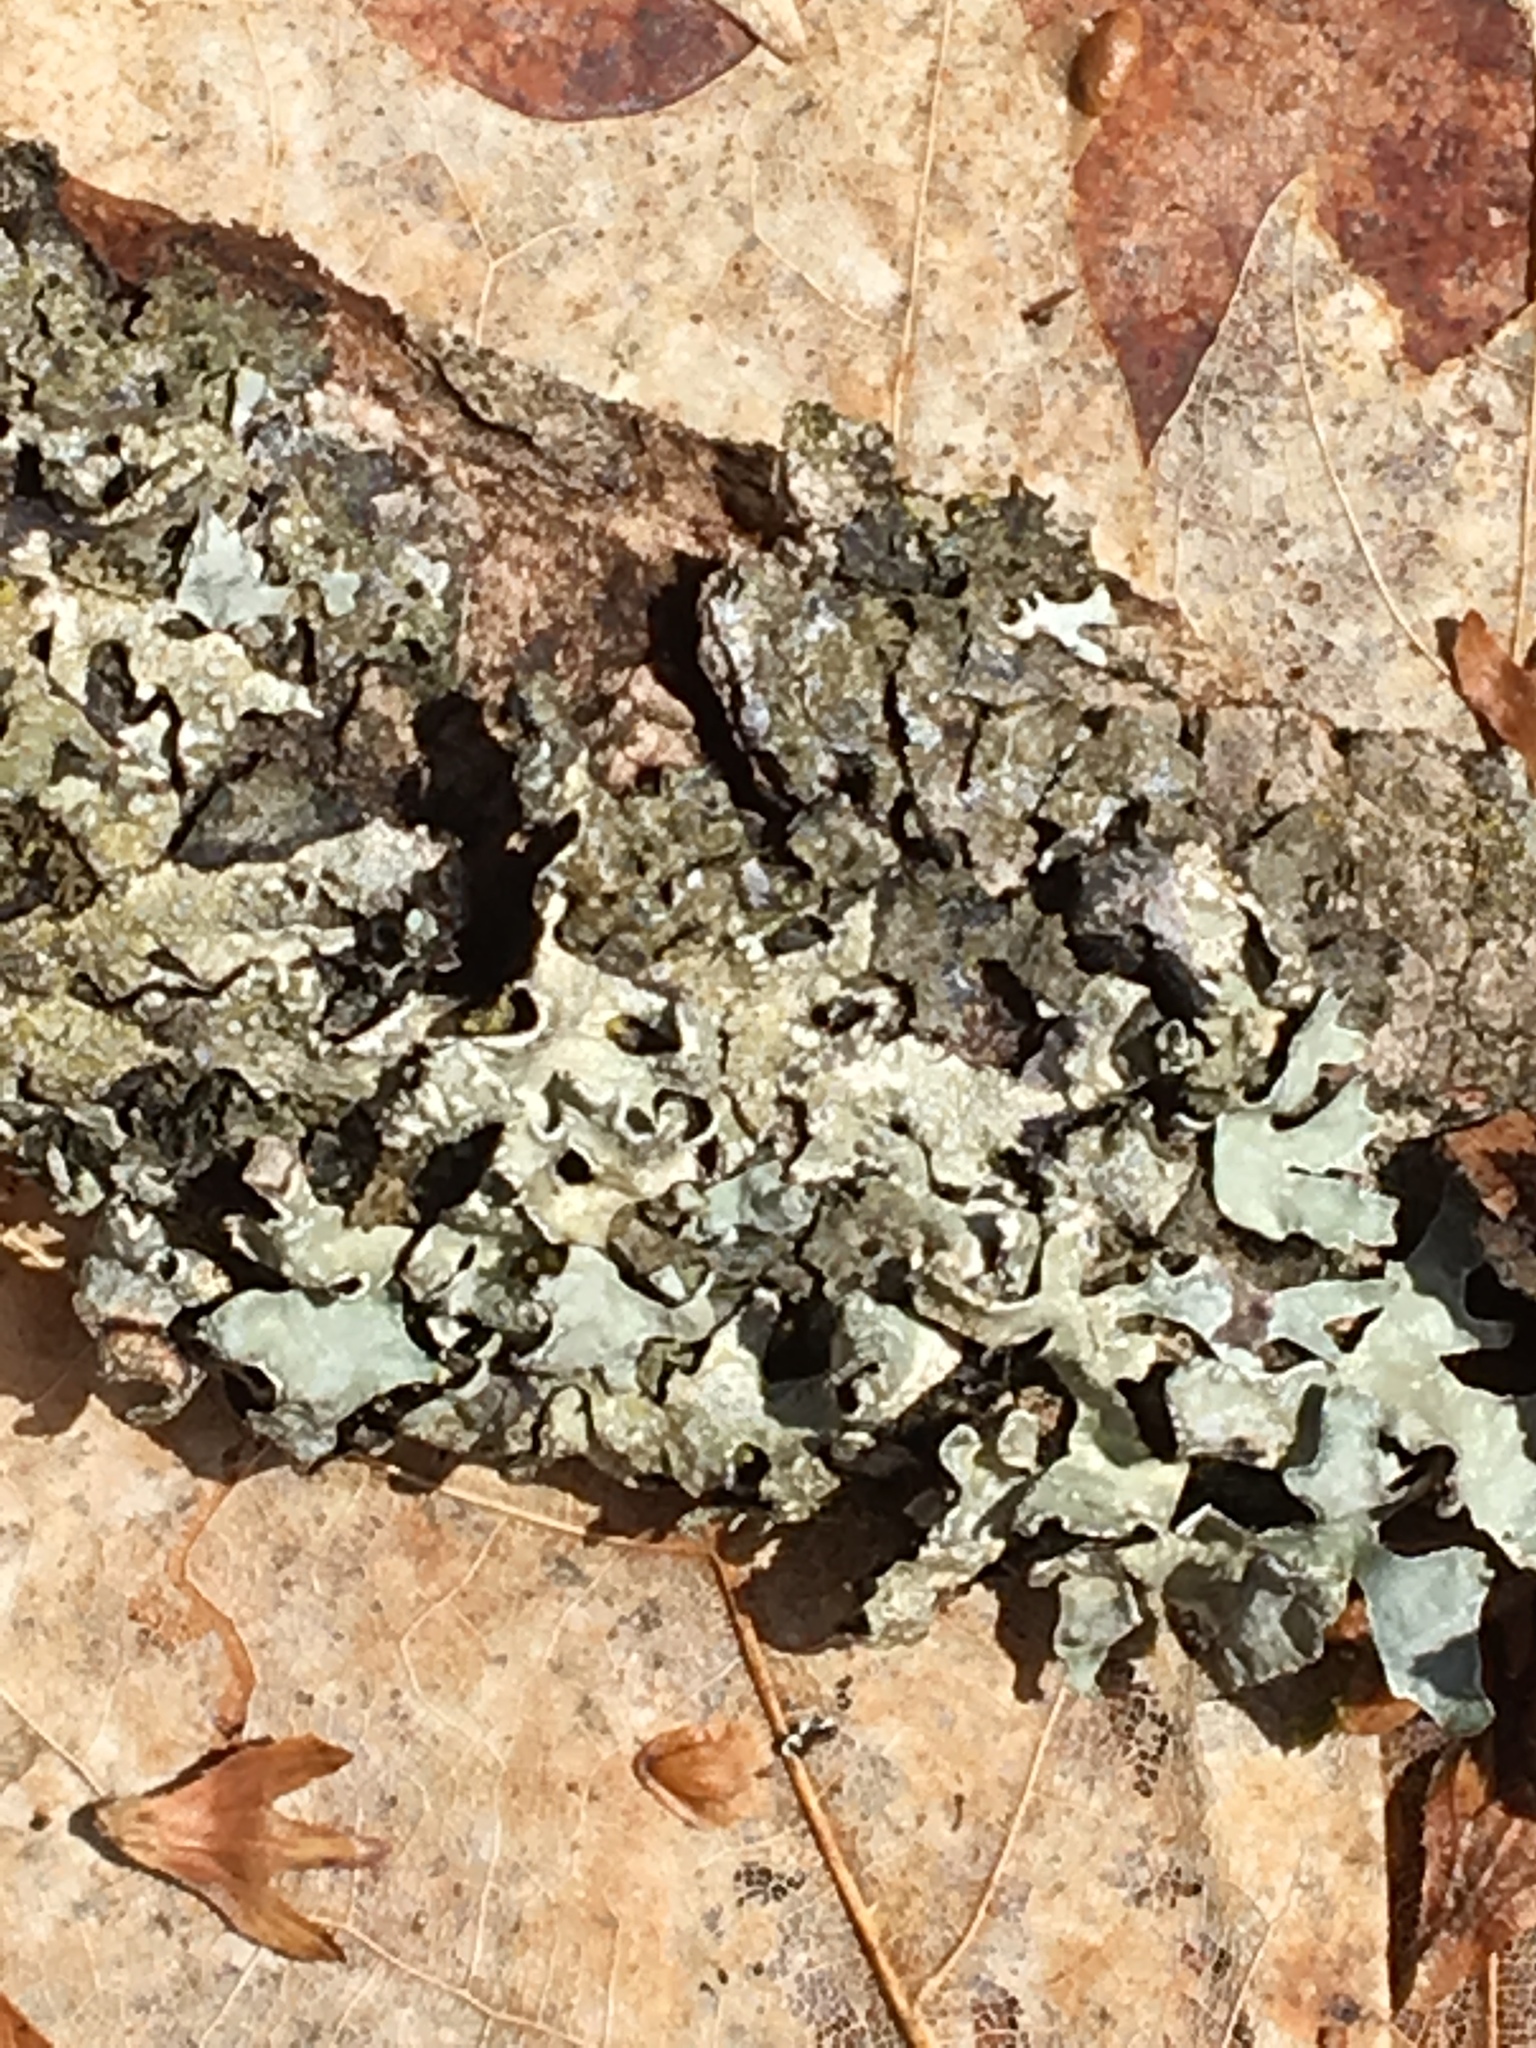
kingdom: Fungi
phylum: Ascomycota
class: Lecanoromycetes
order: Lecanorales
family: Parmeliaceae
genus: Parmelia
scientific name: Parmelia sulcata
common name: Netted shield lichen
